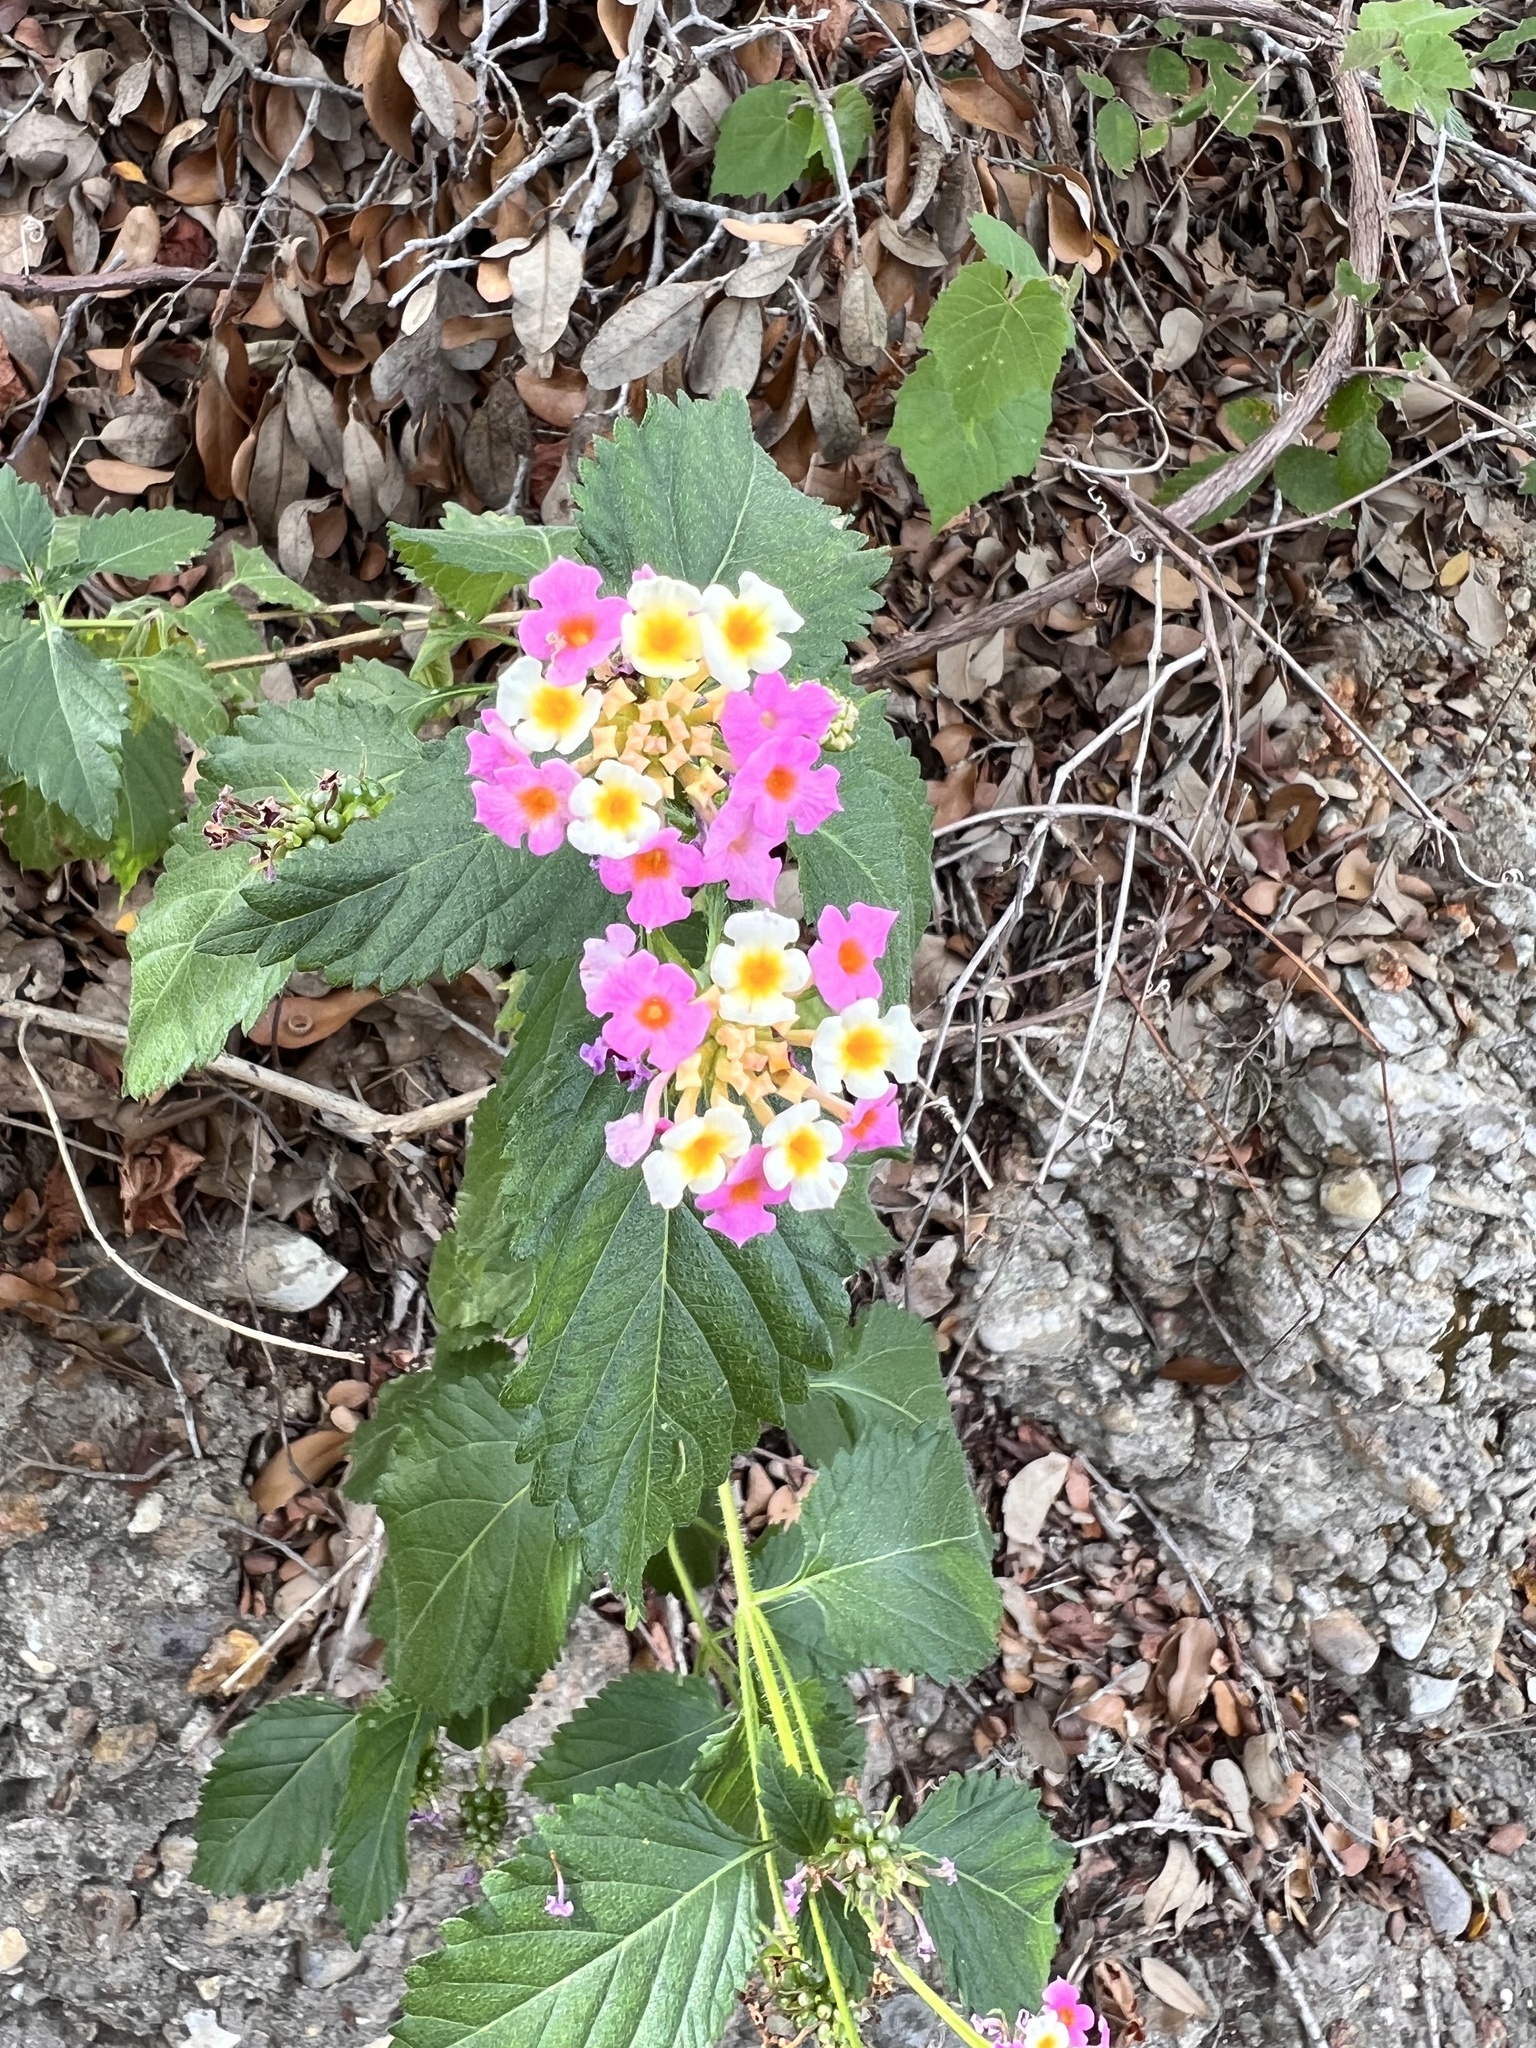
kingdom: Plantae
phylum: Tracheophyta
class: Magnoliopsida
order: Lamiales
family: Verbenaceae
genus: Lantana
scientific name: Lantana strigocamara
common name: Lantana
